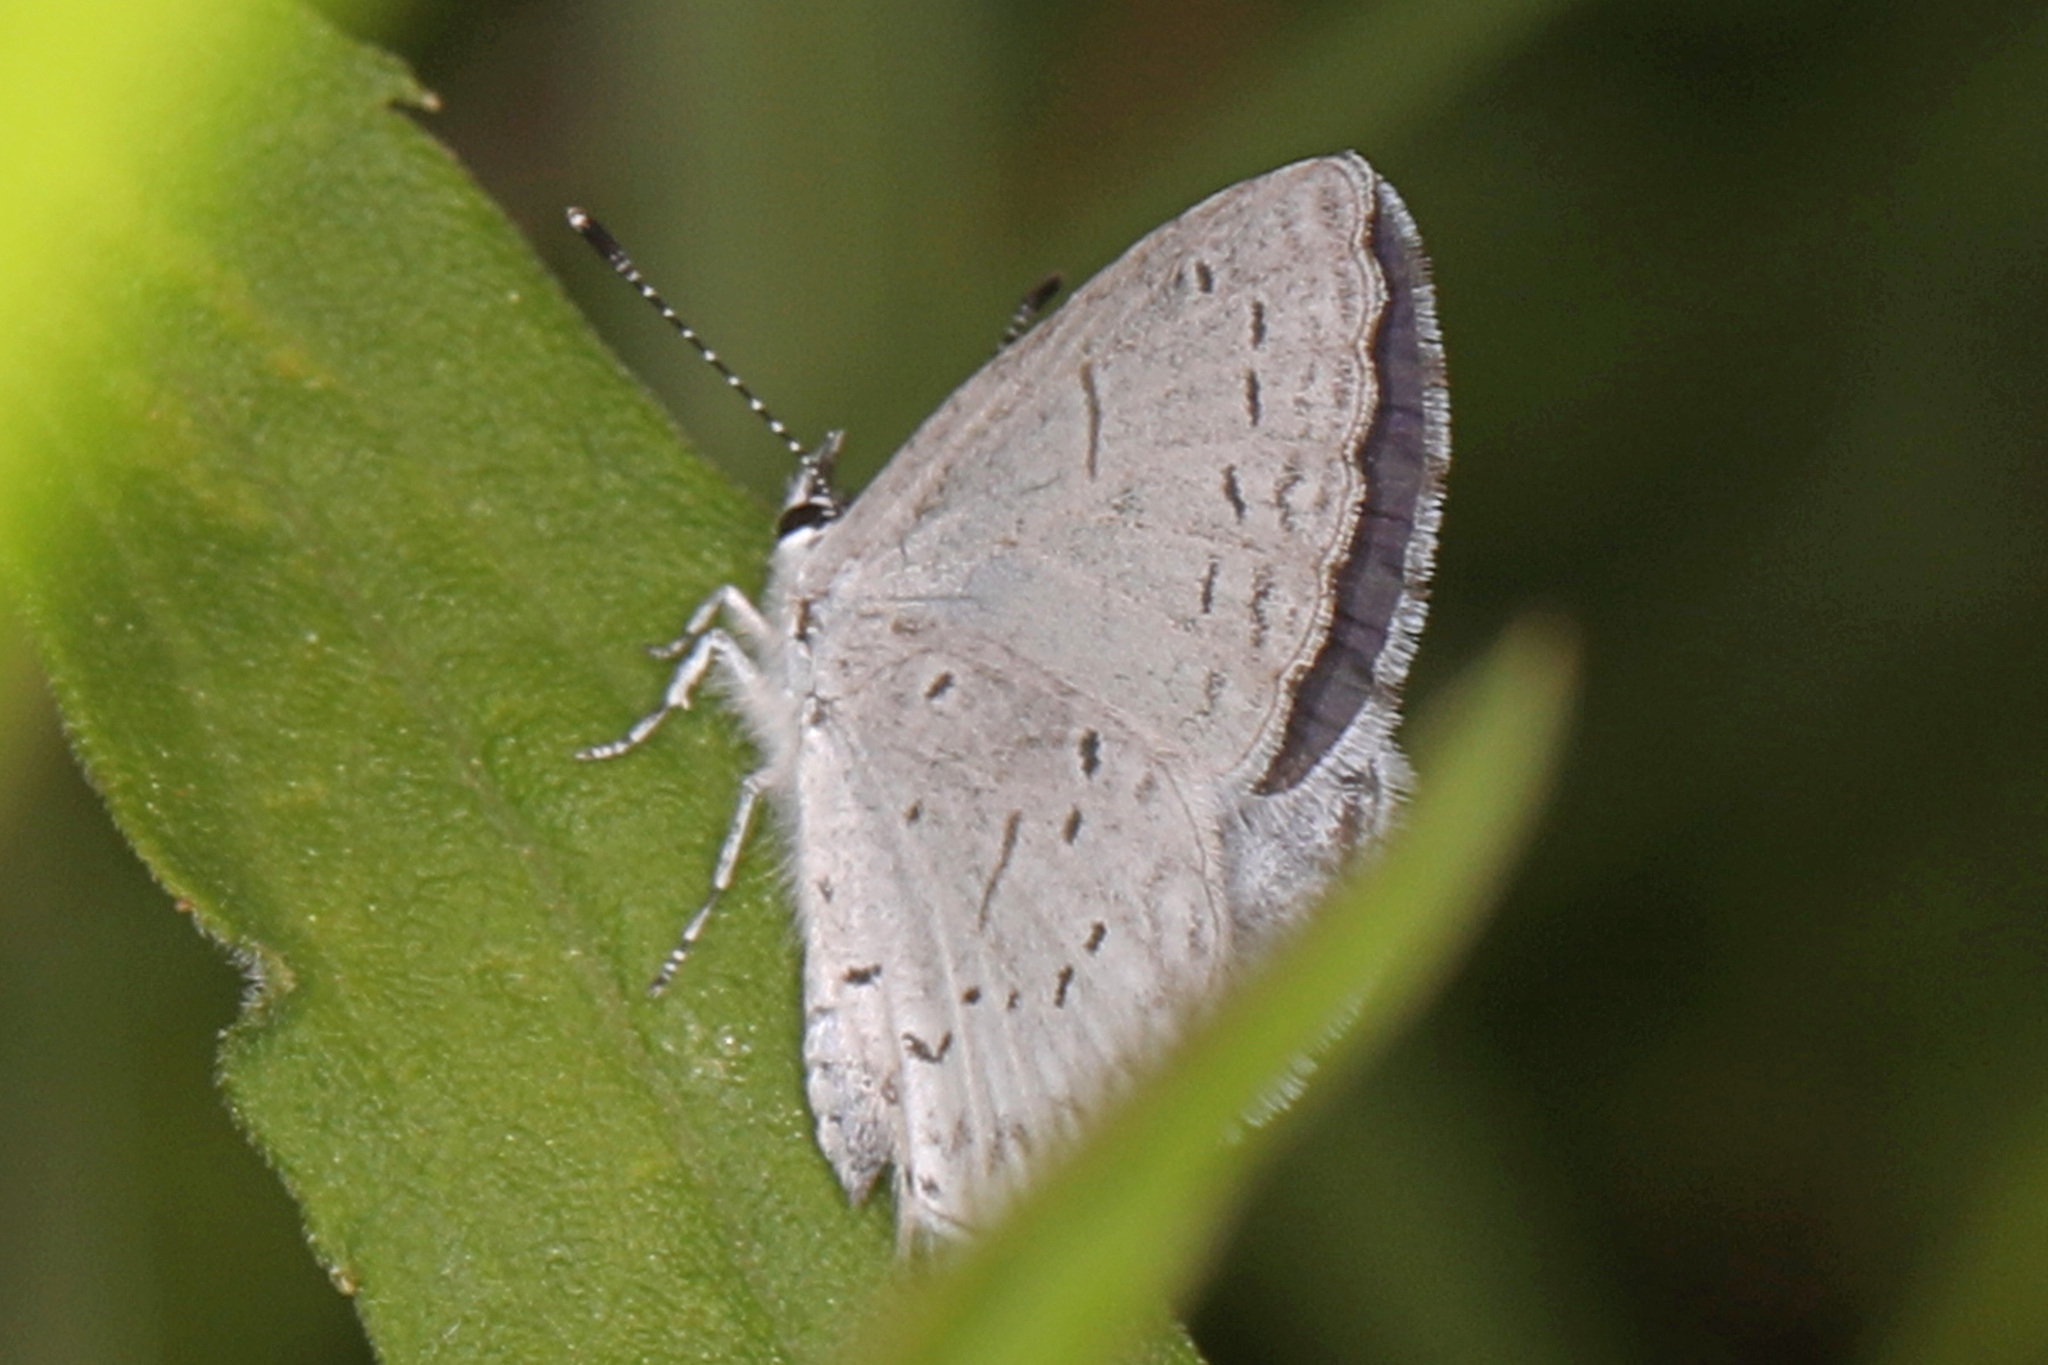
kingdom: Animalia
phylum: Arthropoda
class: Insecta
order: Lepidoptera
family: Lycaenidae
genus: Cyaniris
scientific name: Cyaniris neglecta
